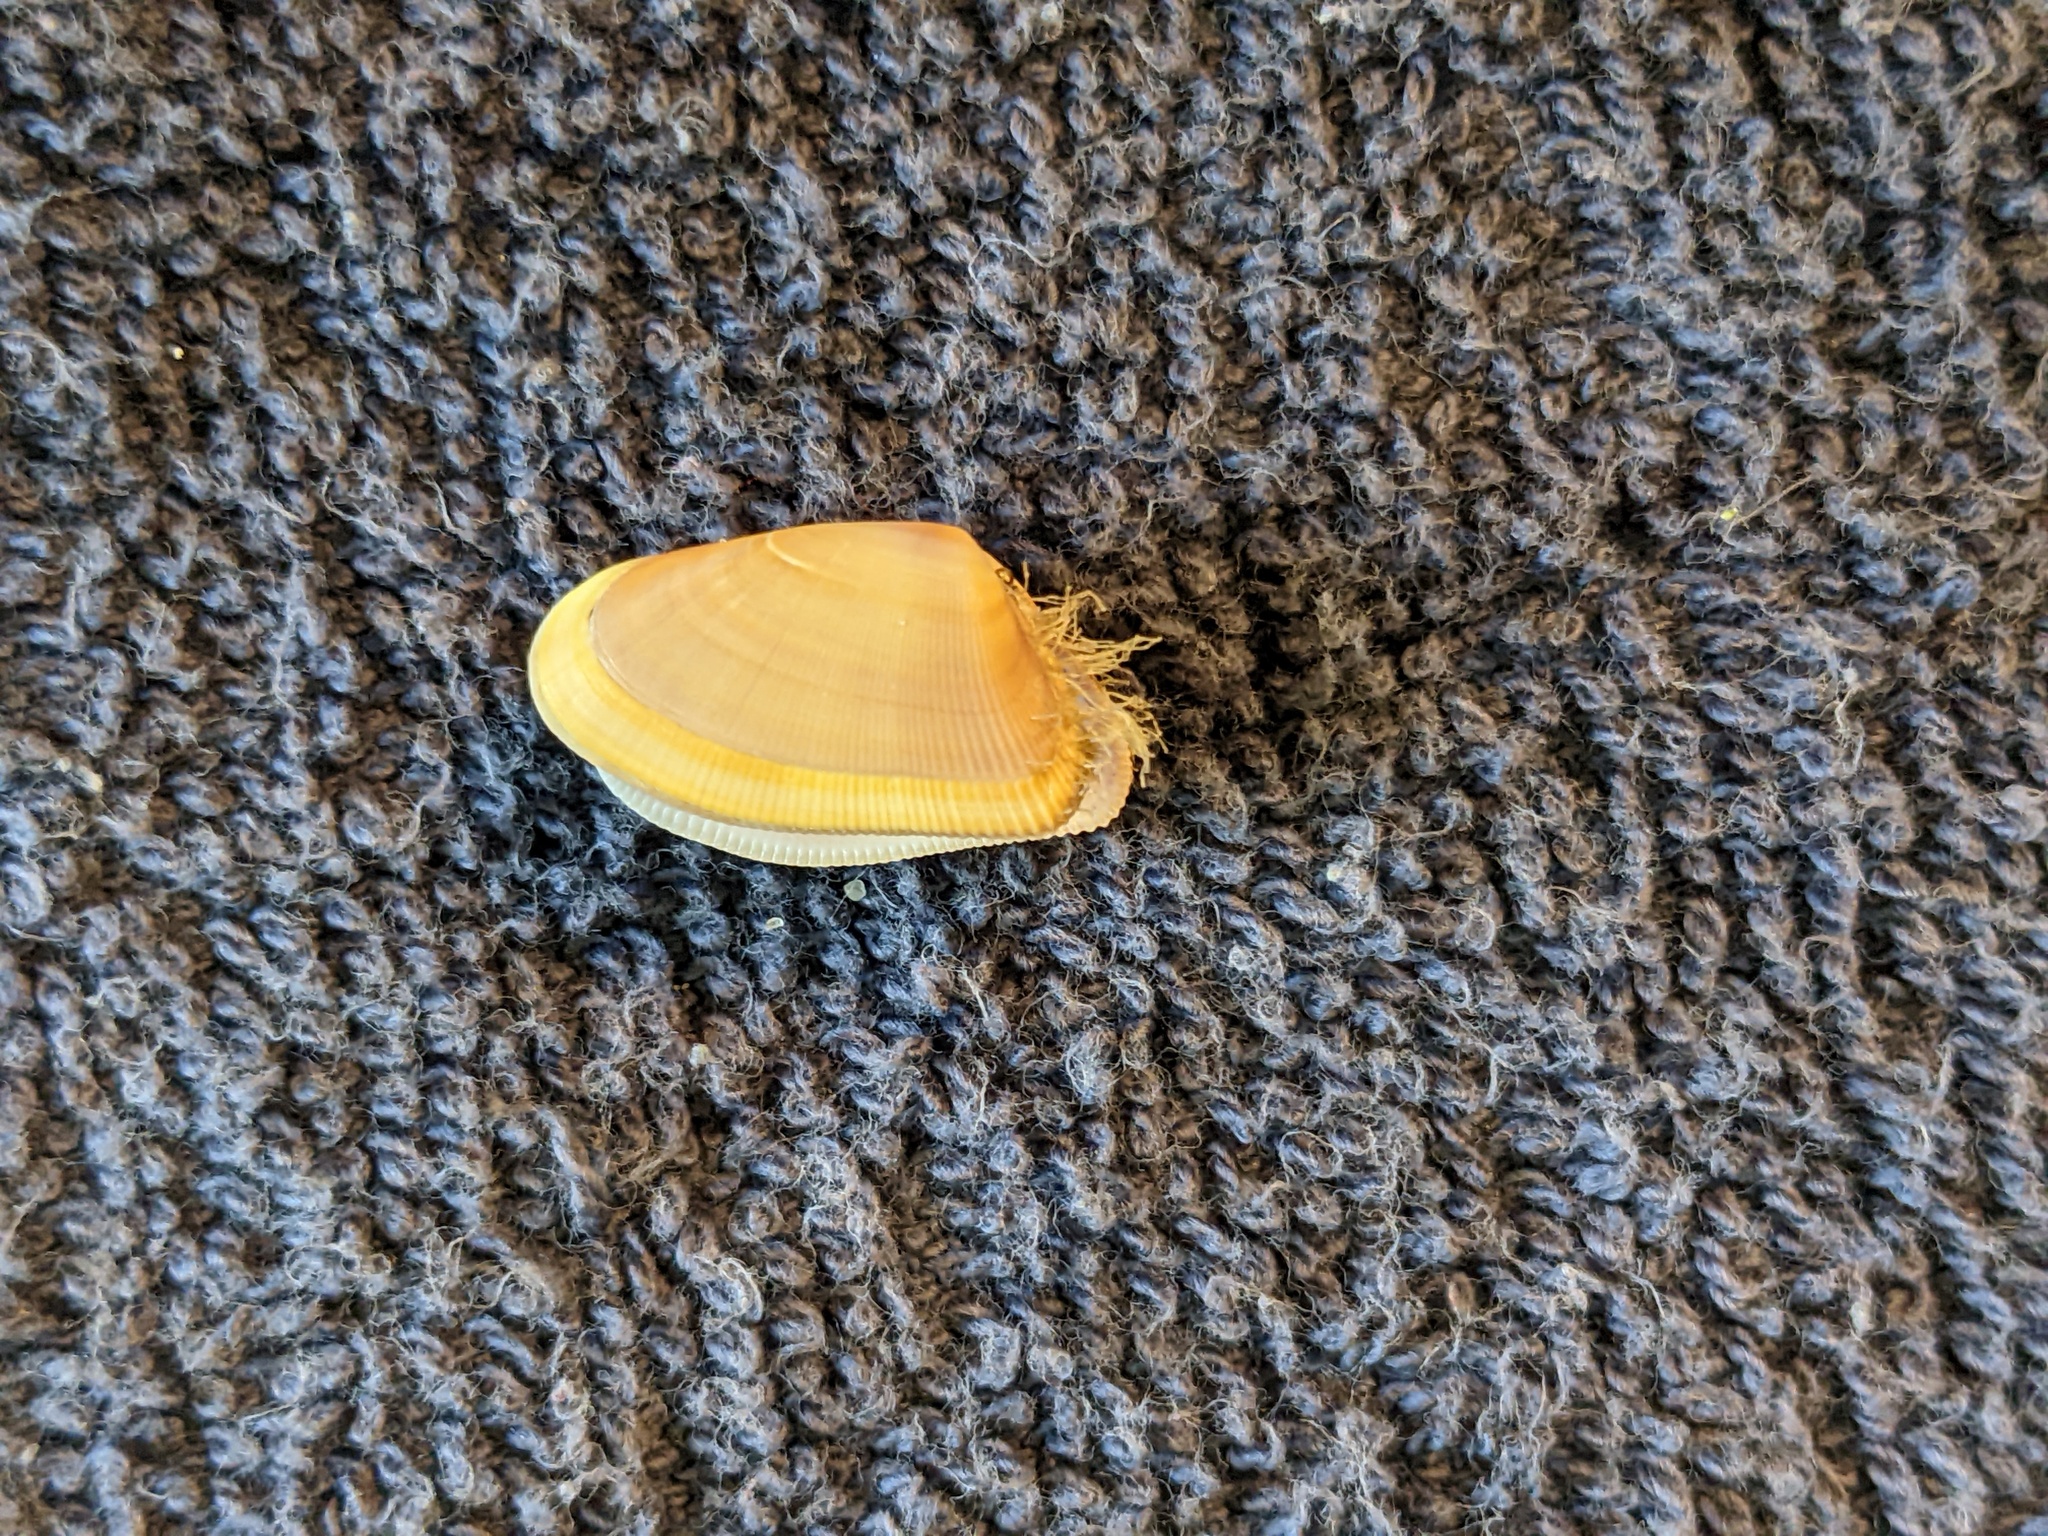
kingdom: Animalia
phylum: Mollusca
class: Bivalvia
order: Cardiida
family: Donacidae
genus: Donax
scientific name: Donax variabilis
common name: Butterfly shell
